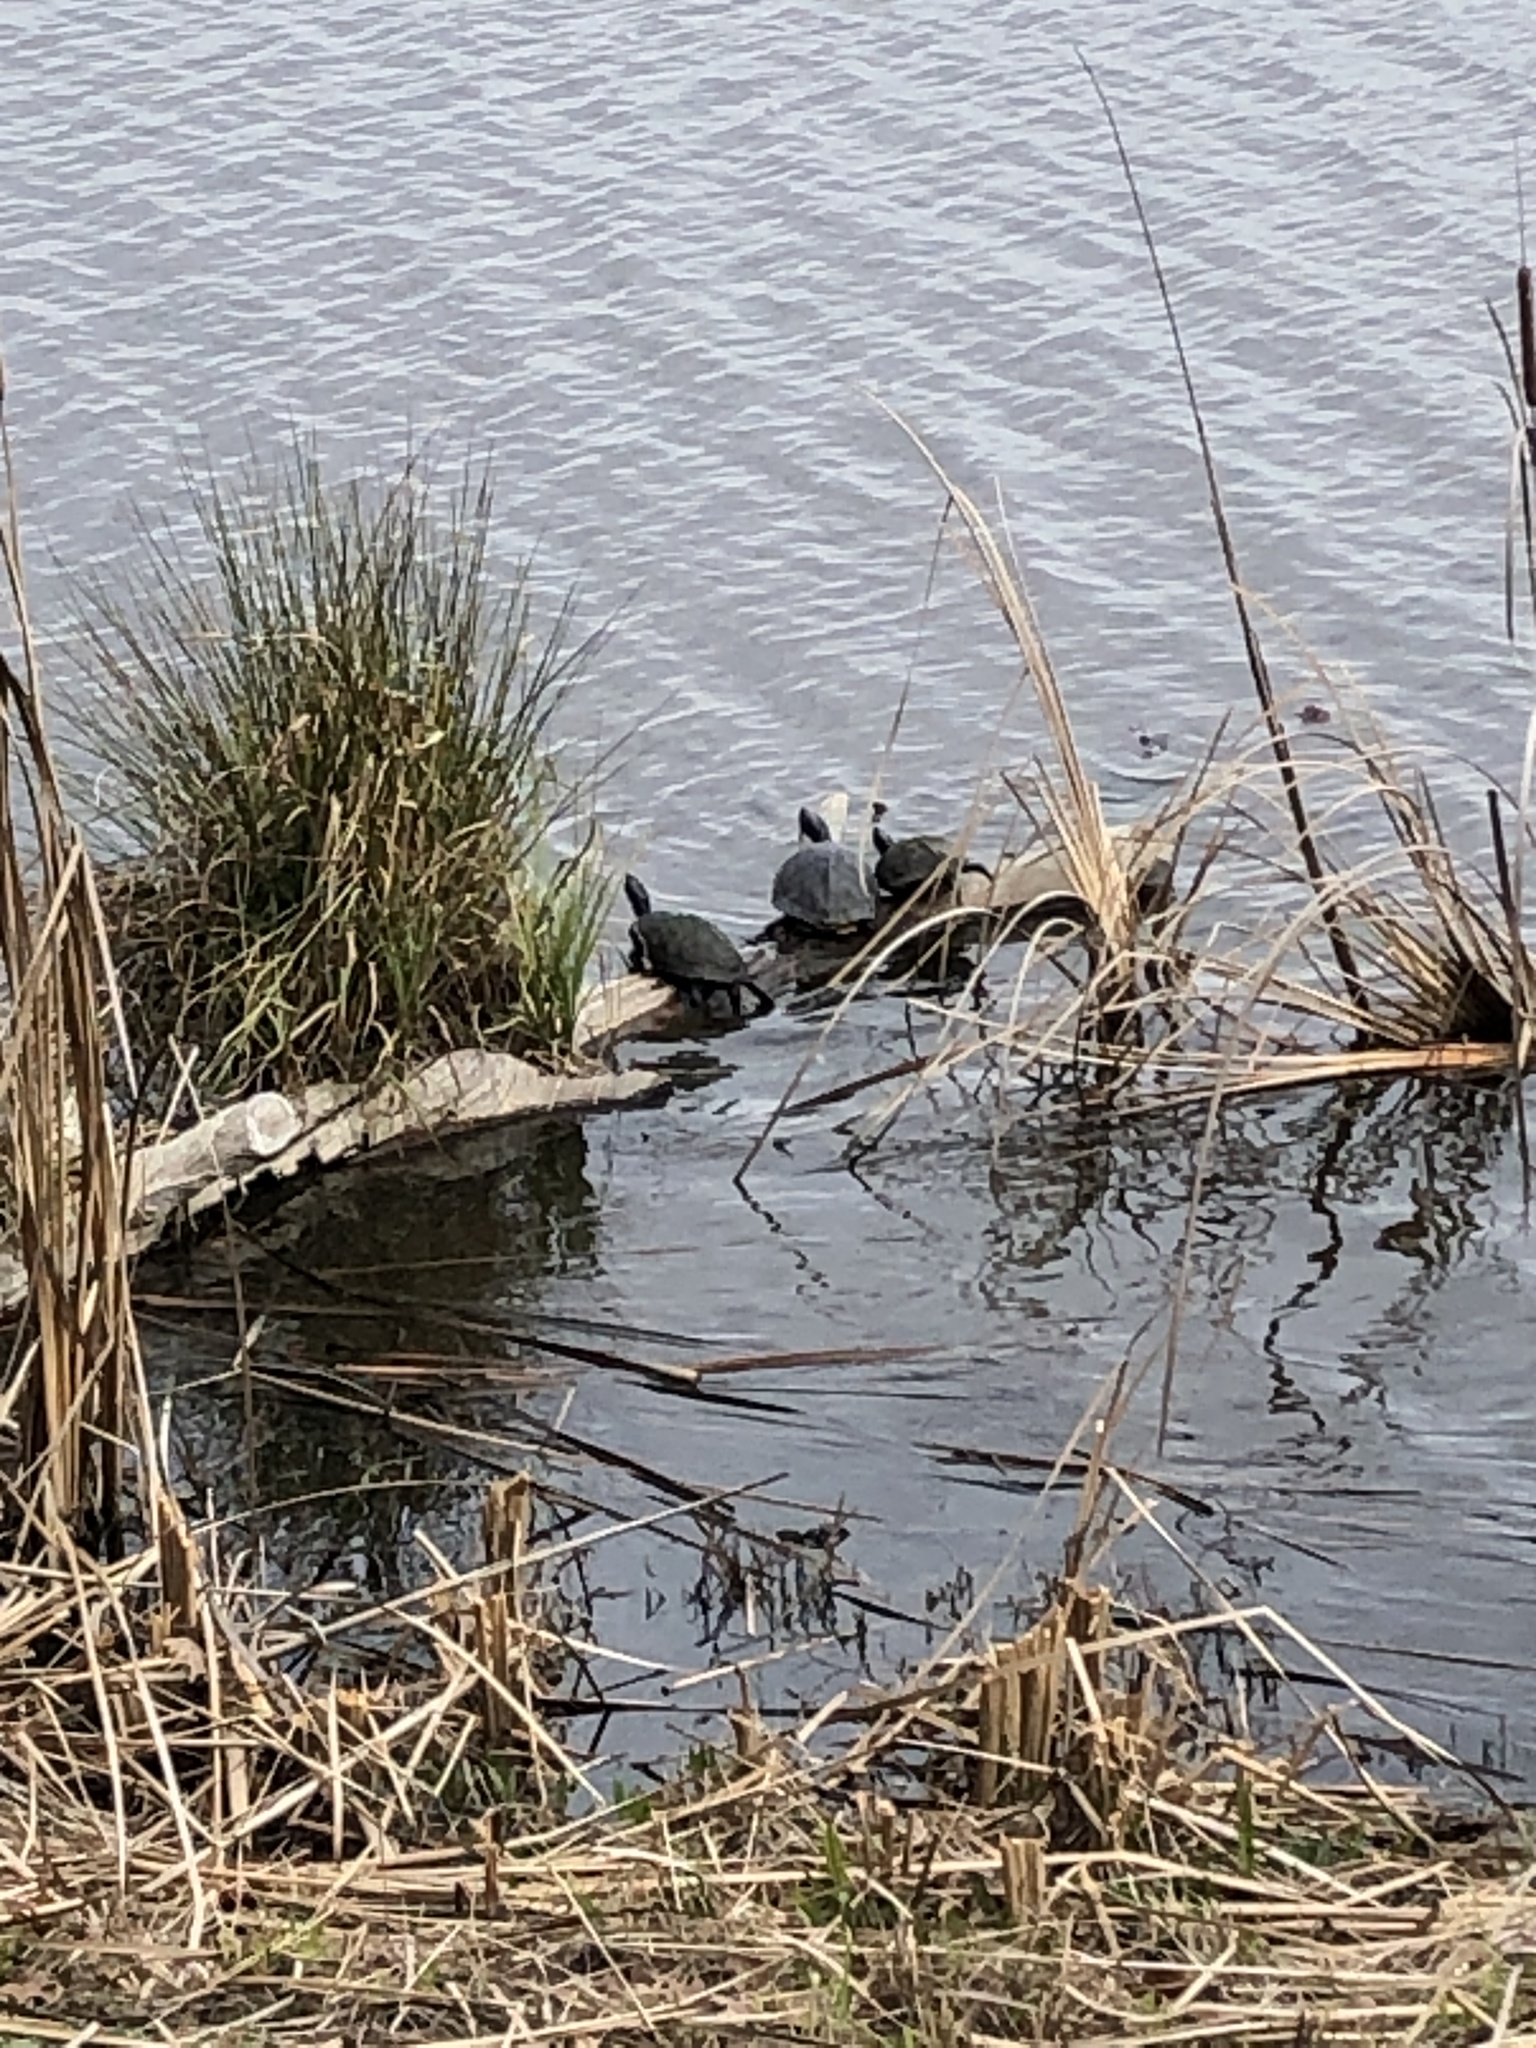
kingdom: Animalia
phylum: Chordata
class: Testudines
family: Emydidae
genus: Trachemys
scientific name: Trachemys scripta
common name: Slider
